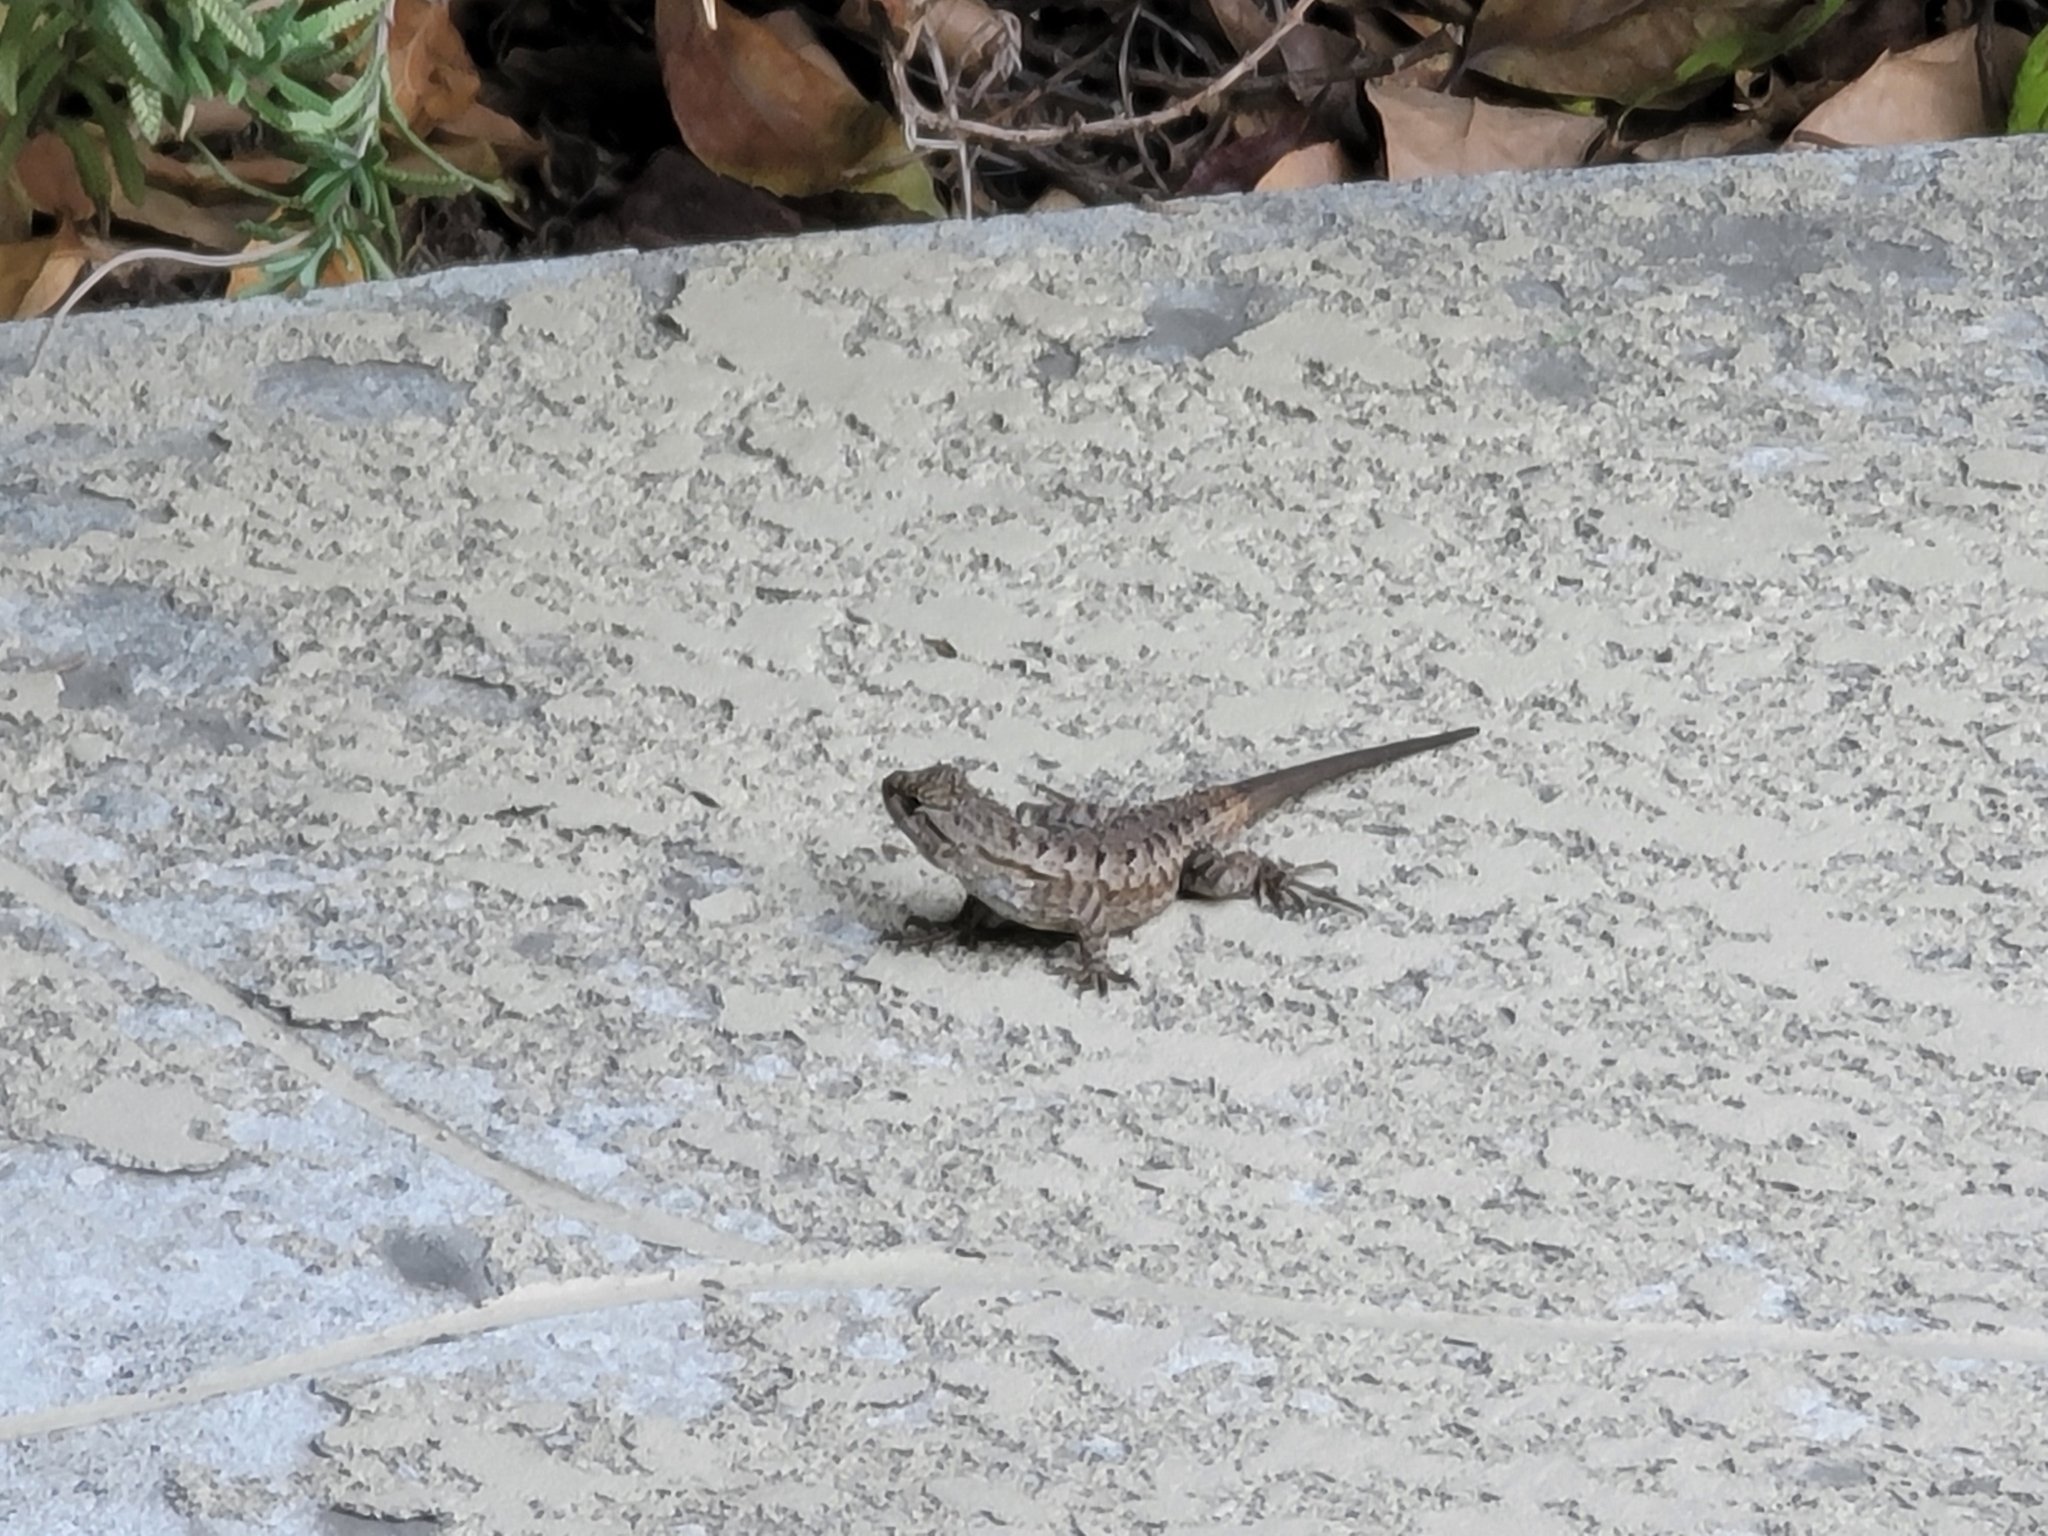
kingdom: Animalia
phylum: Chordata
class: Squamata
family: Phrynosomatidae
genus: Sceloporus
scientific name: Sceloporus occidentalis
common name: Western fence lizard
